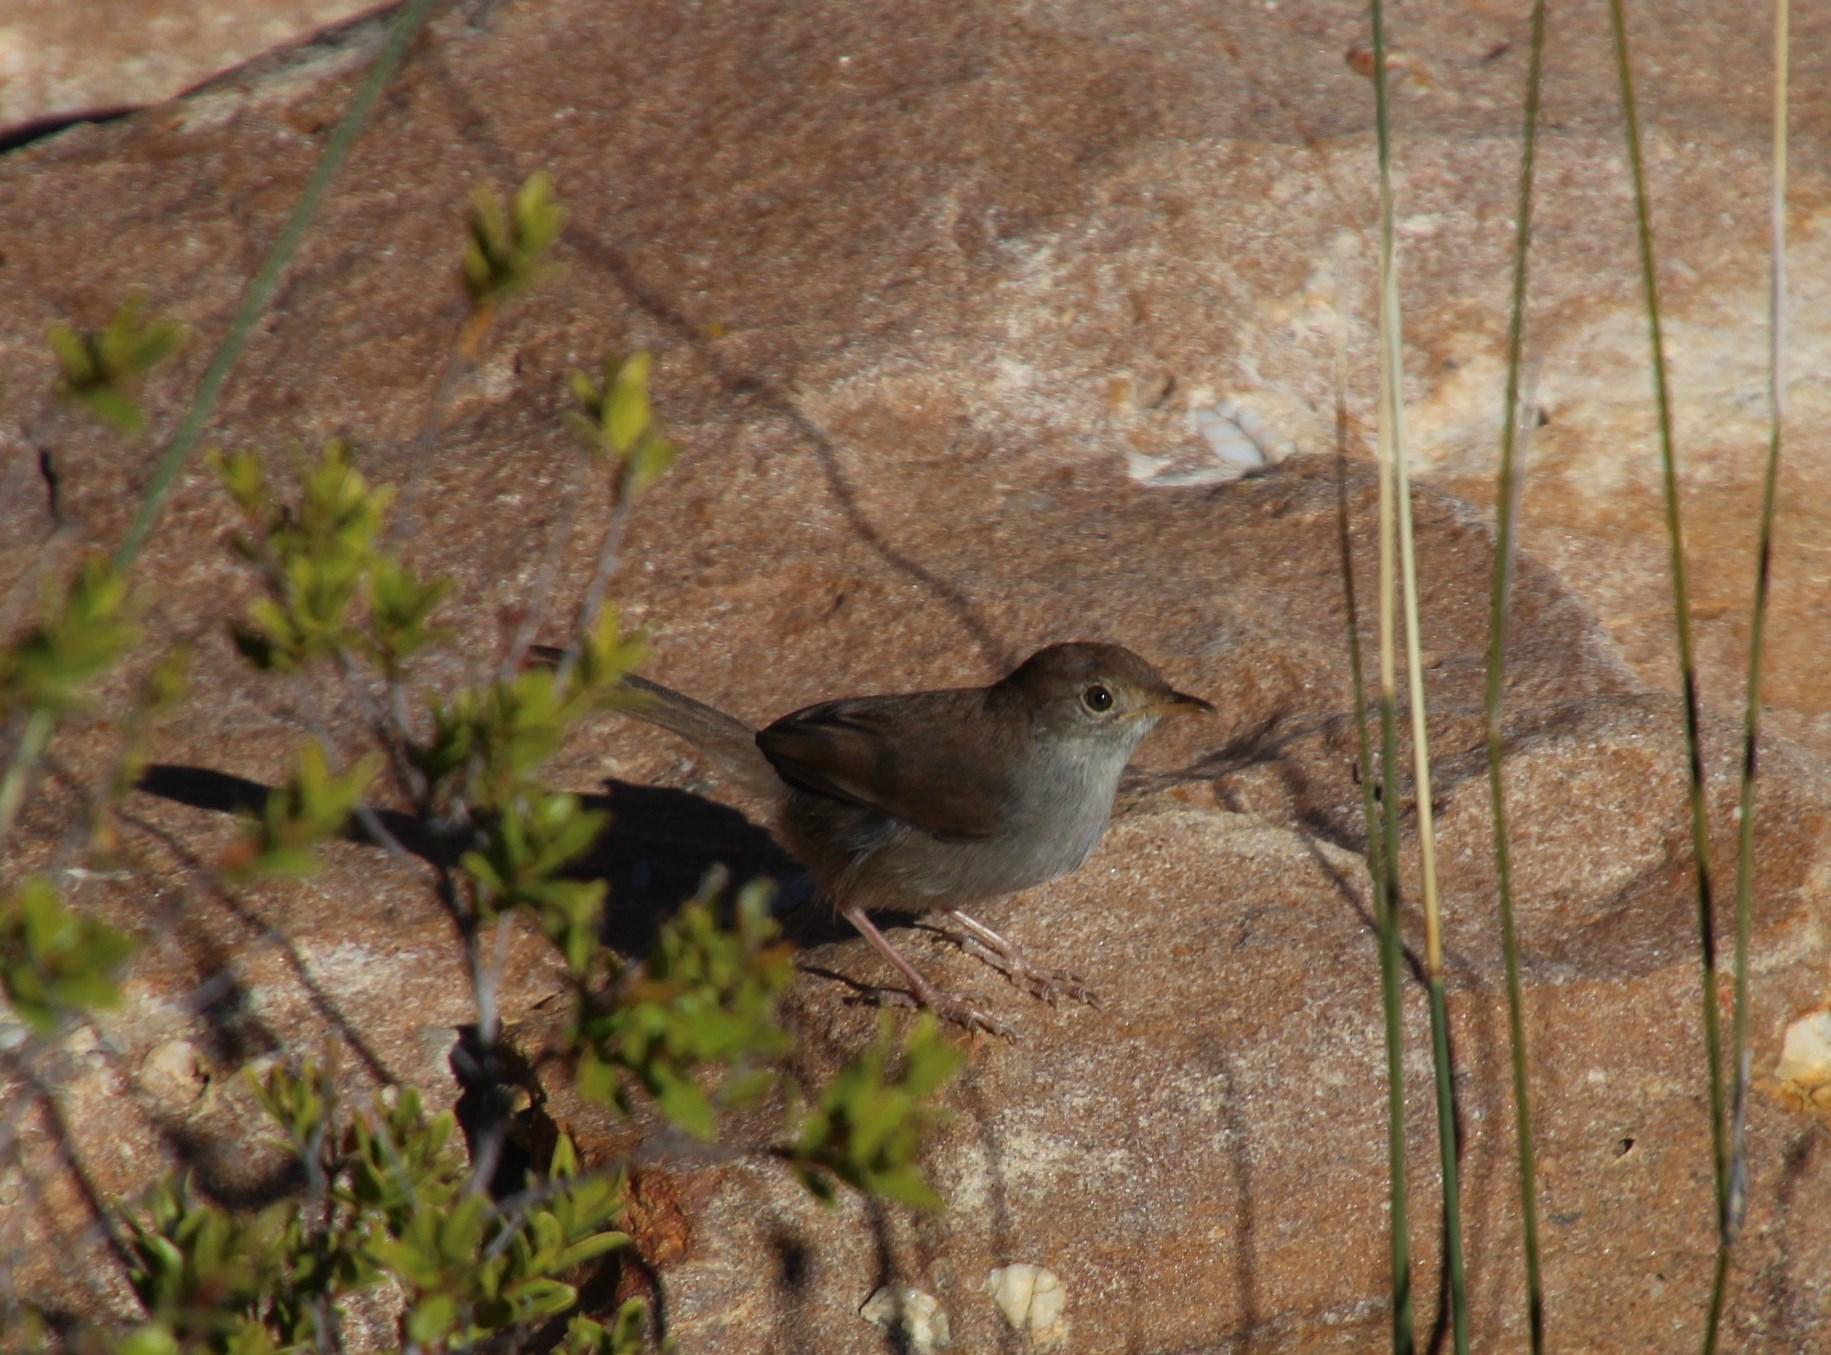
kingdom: Animalia
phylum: Chordata
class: Aves
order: Passeriformes
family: Cisticolidae
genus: Cisticola
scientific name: Cisticola fulvicapilla
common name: Neddicky
